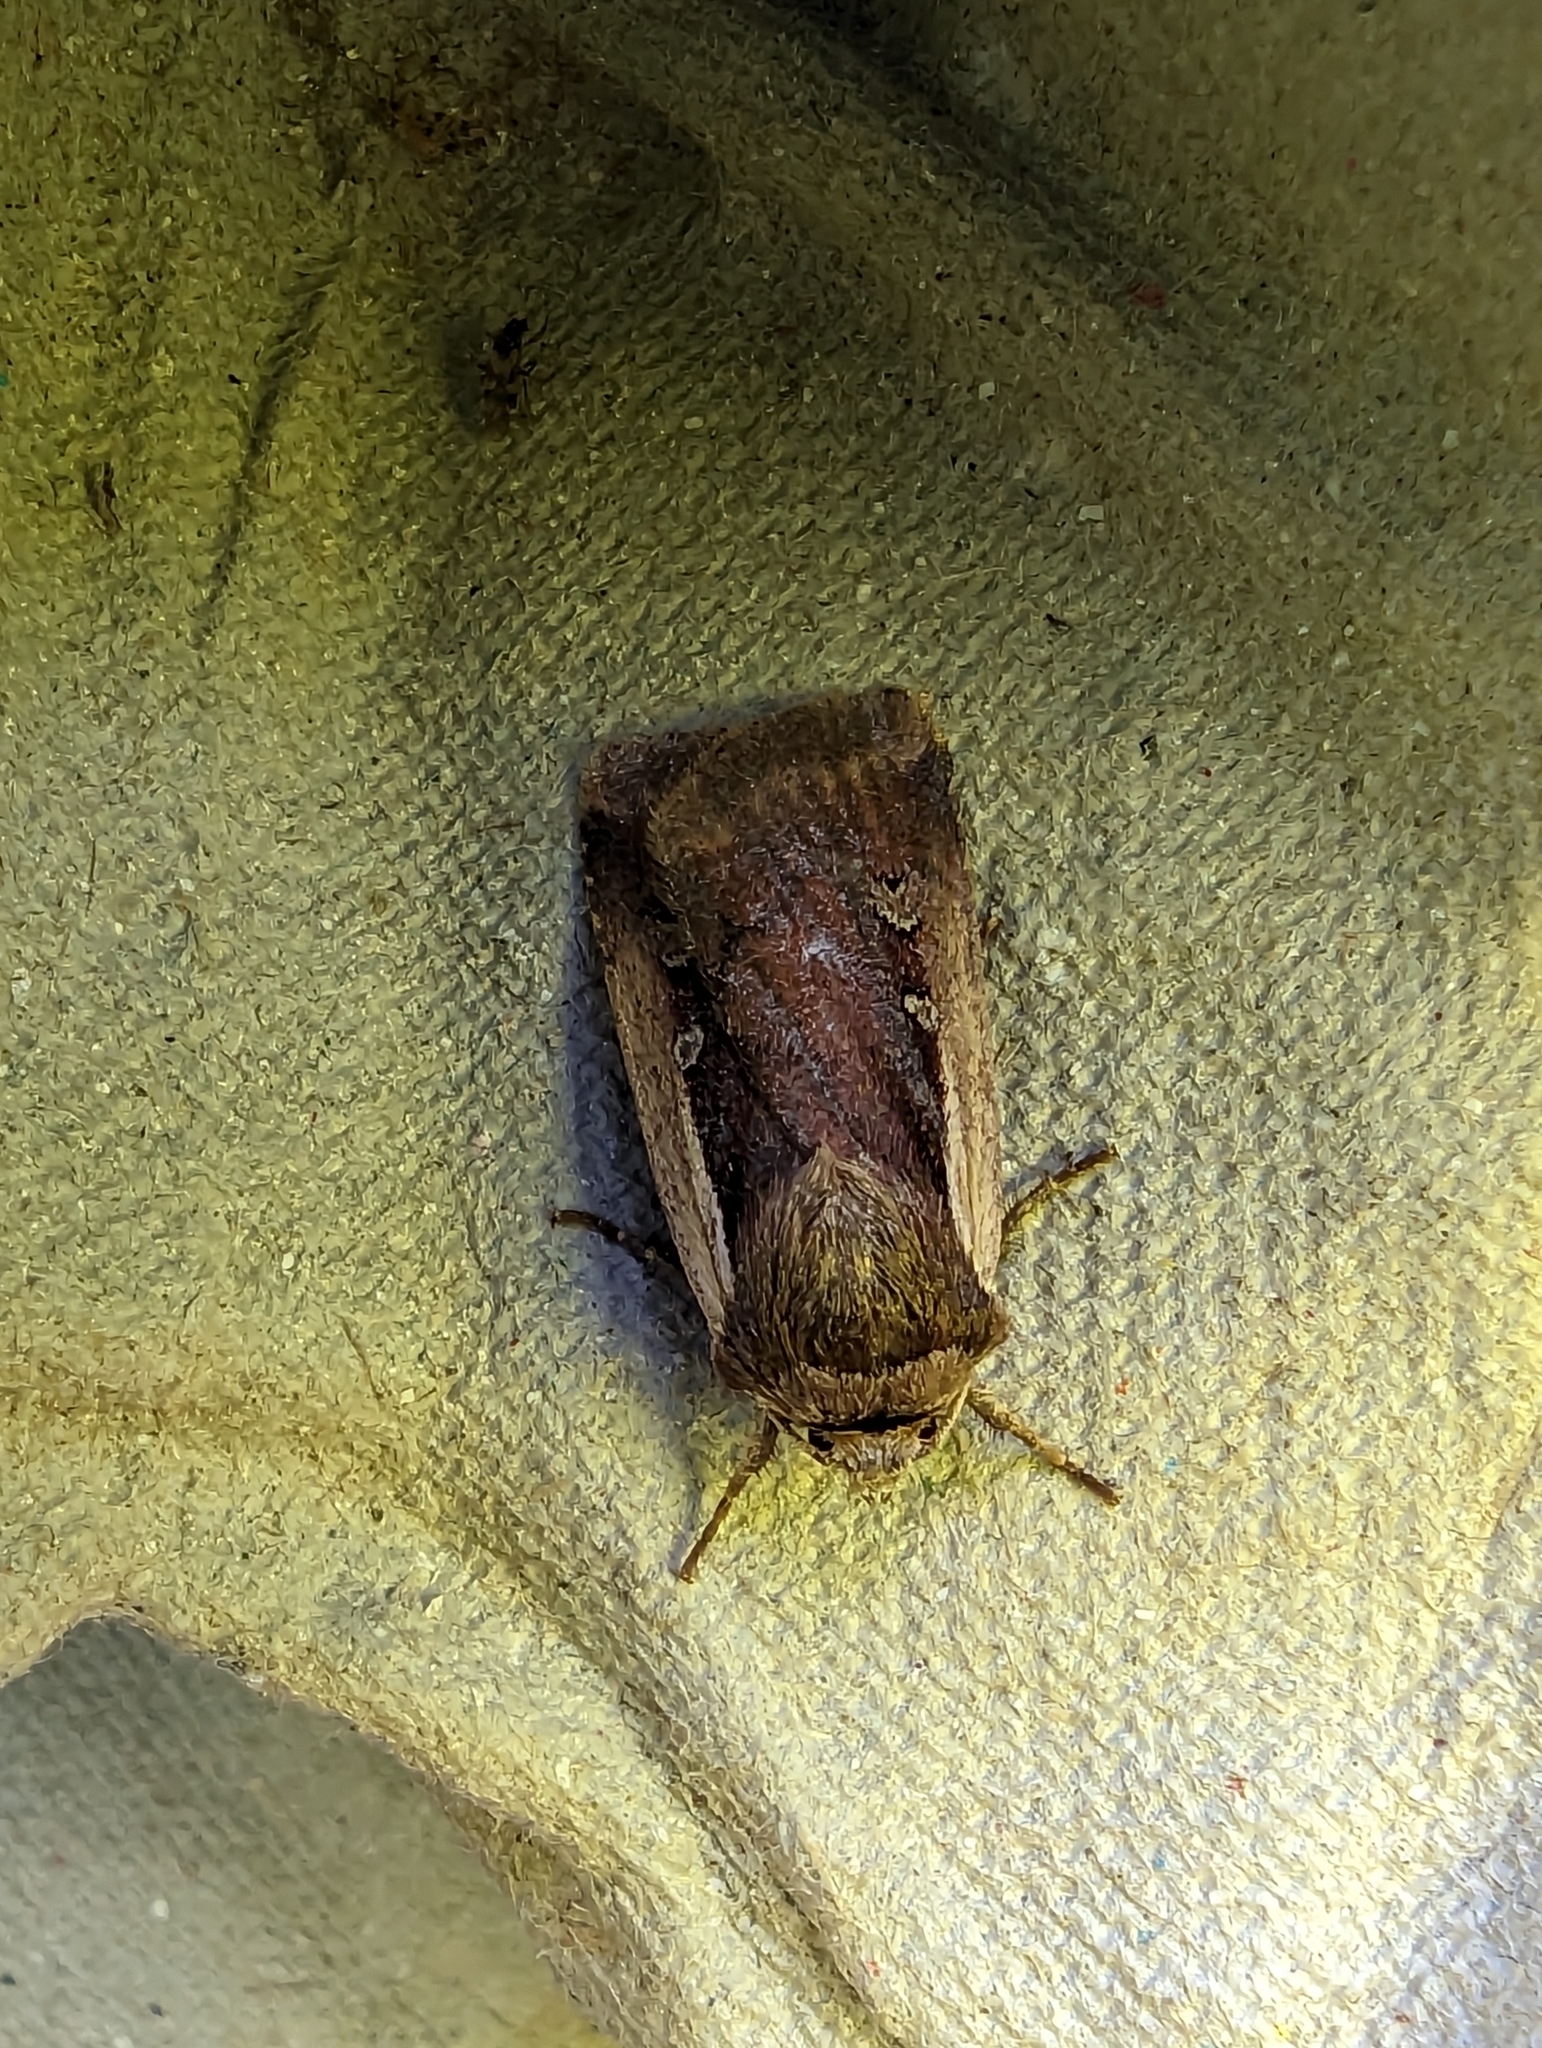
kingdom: Animalia
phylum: Arthropoda
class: Insecta
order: Lepidoptera
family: Noctuidae
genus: Ochropleura
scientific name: Ochropleura plecta
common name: Flame shoulder
